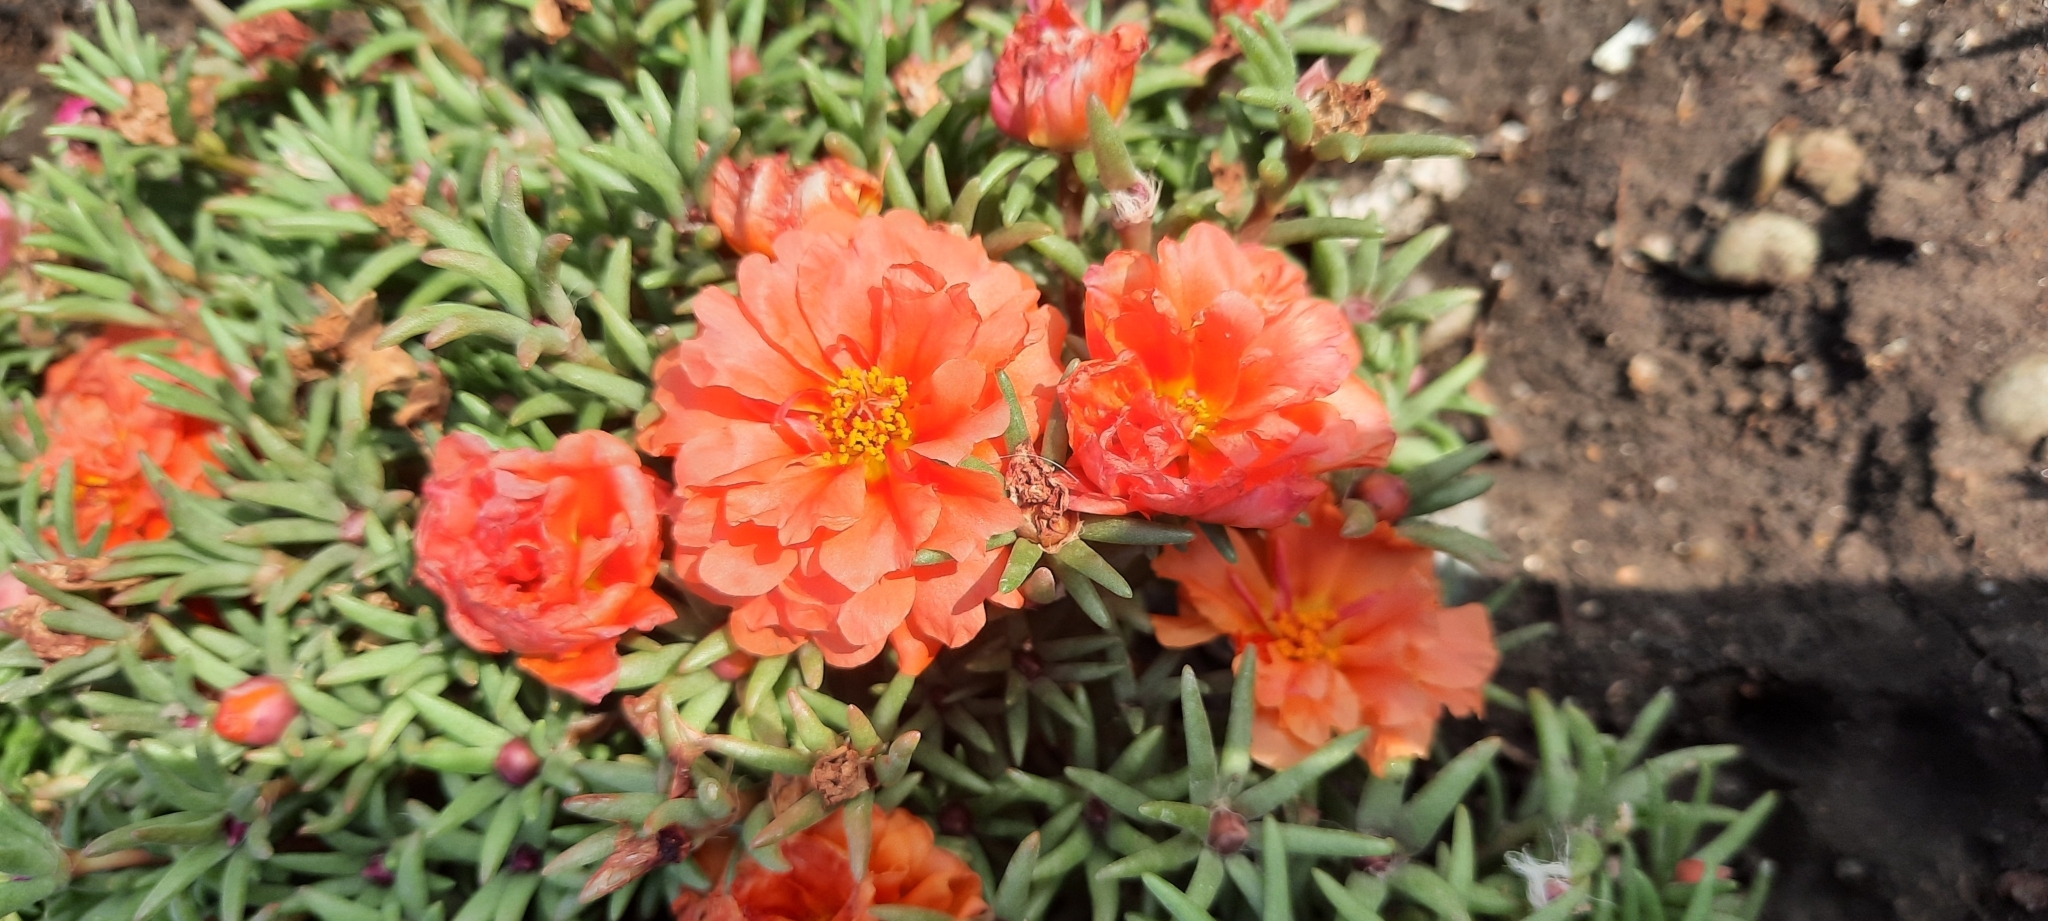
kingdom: Plantae
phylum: Tracheophyta
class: Magnoliopsida
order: Caryophyllales
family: Portulacaceae
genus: Portulaca
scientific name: Portulaca grandiflora
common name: Moss-rose
